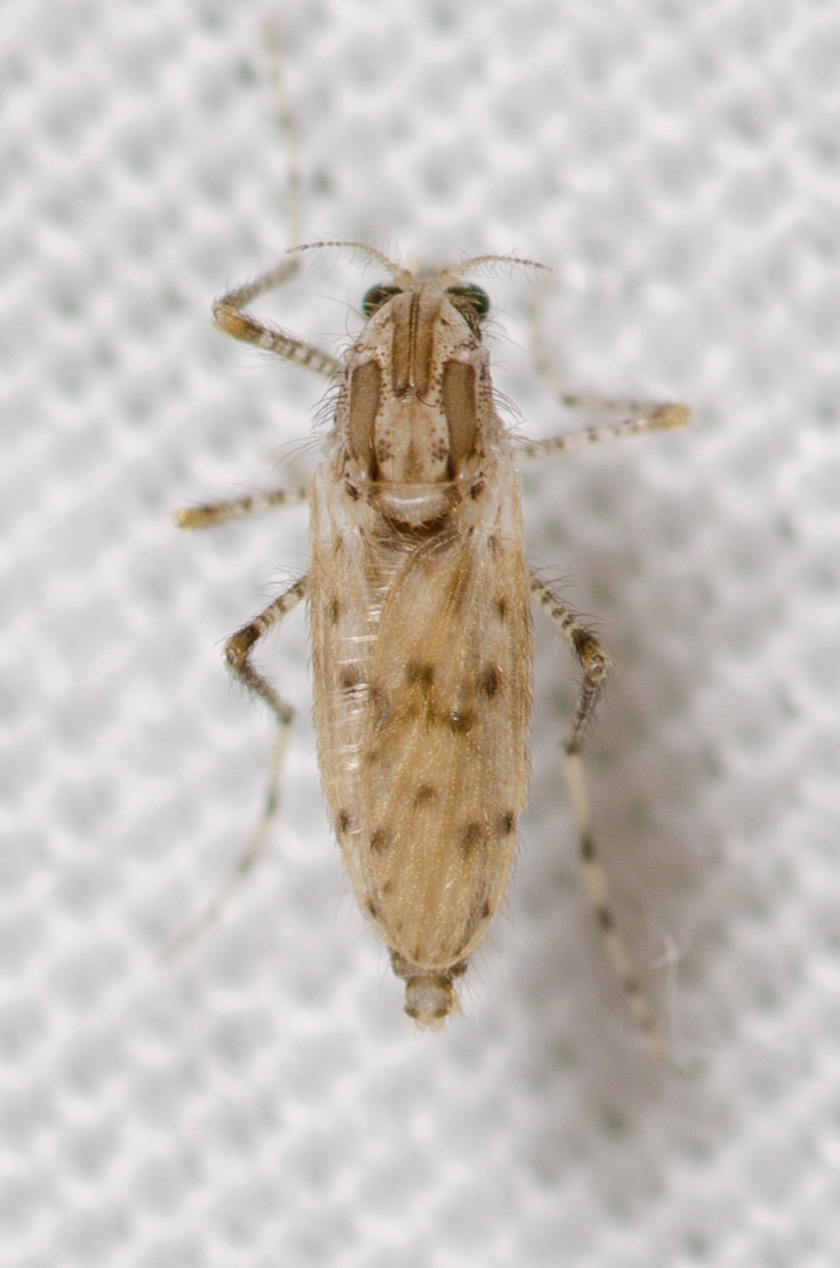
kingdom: Animalia
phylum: Arthropoda
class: Insecta
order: Diptera
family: Chaoboridae
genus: Chaoborus
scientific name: Chaoborus punctipennis
